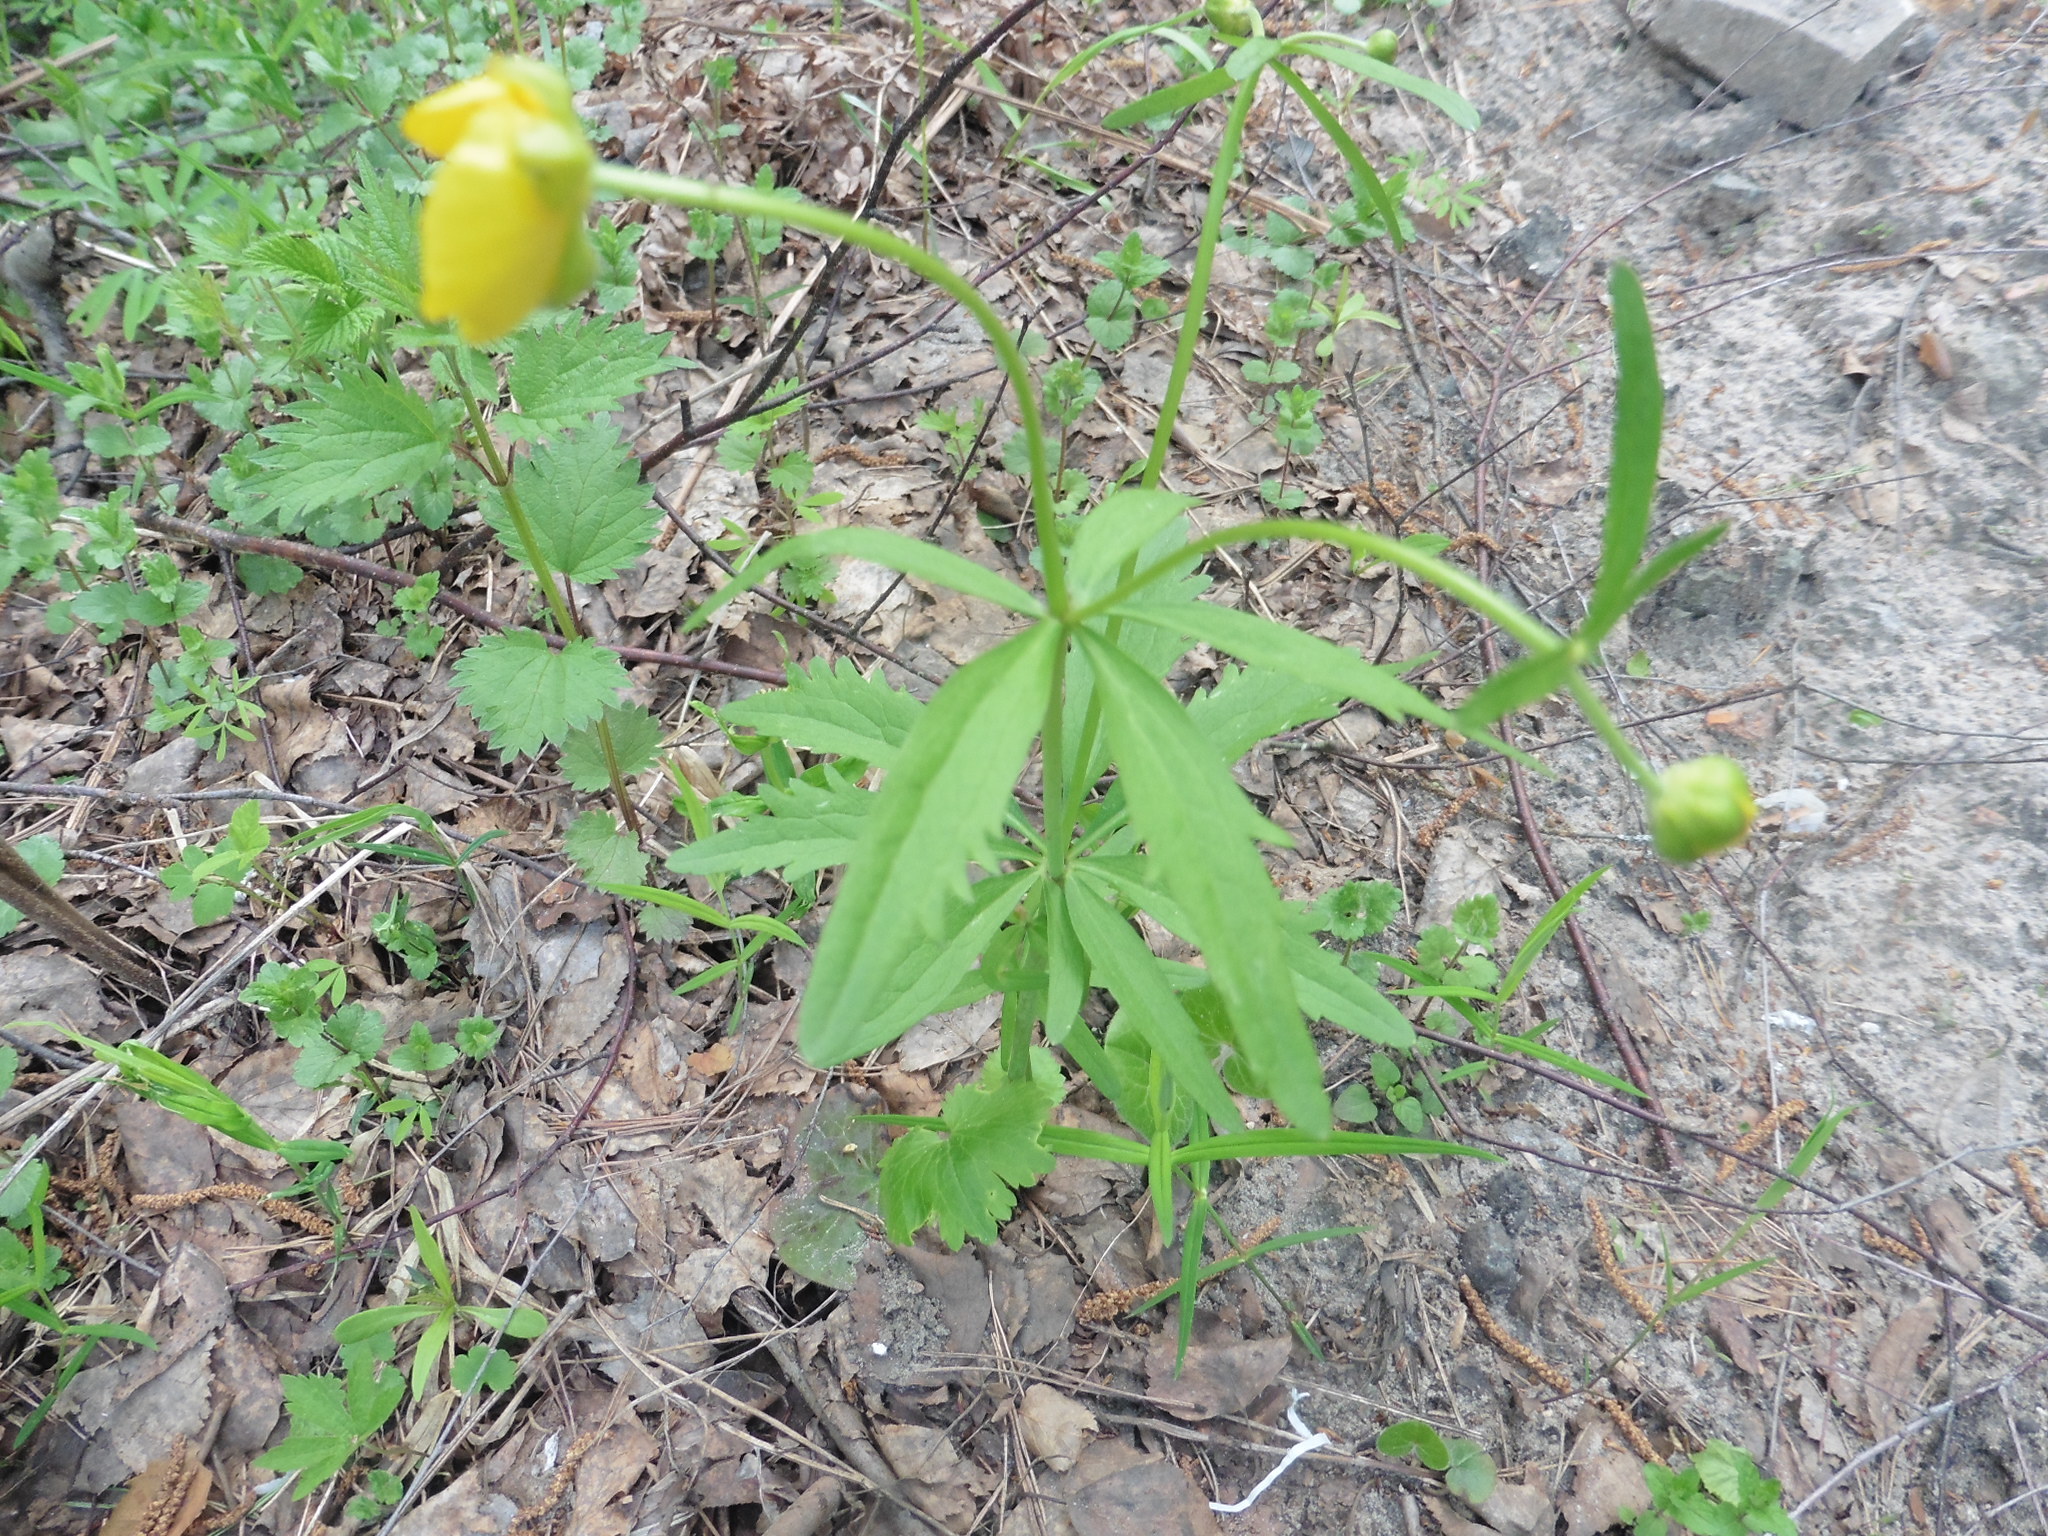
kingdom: Plantae
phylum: Tracheophyta
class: Magnoliopsida
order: Ranunculales
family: Ranunculaceae
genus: Ranunculus
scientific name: Ranunculus cassubicus
